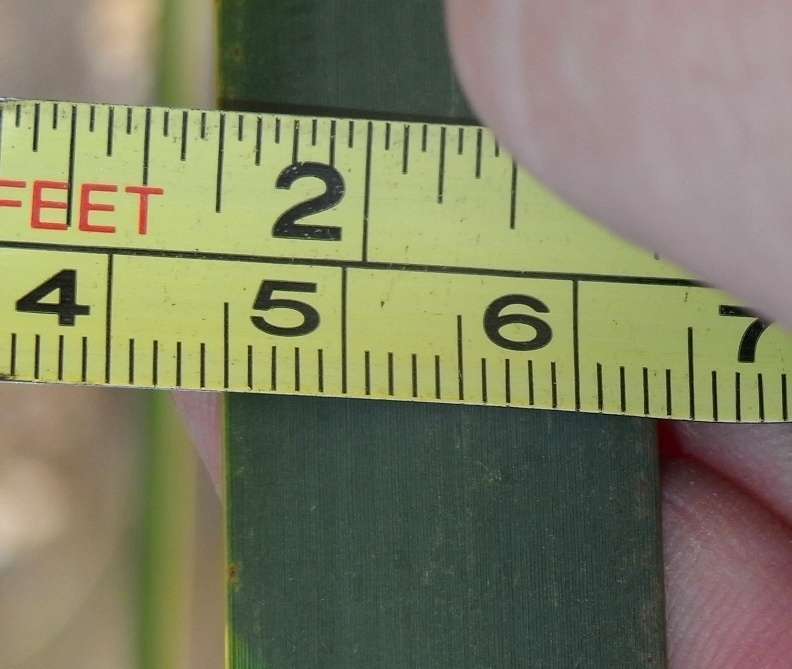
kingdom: Plantae
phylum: Tracheophyta
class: Liliopsida
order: Poales
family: Typhaceae
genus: Typha
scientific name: Typha orientalis
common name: Bullrush
